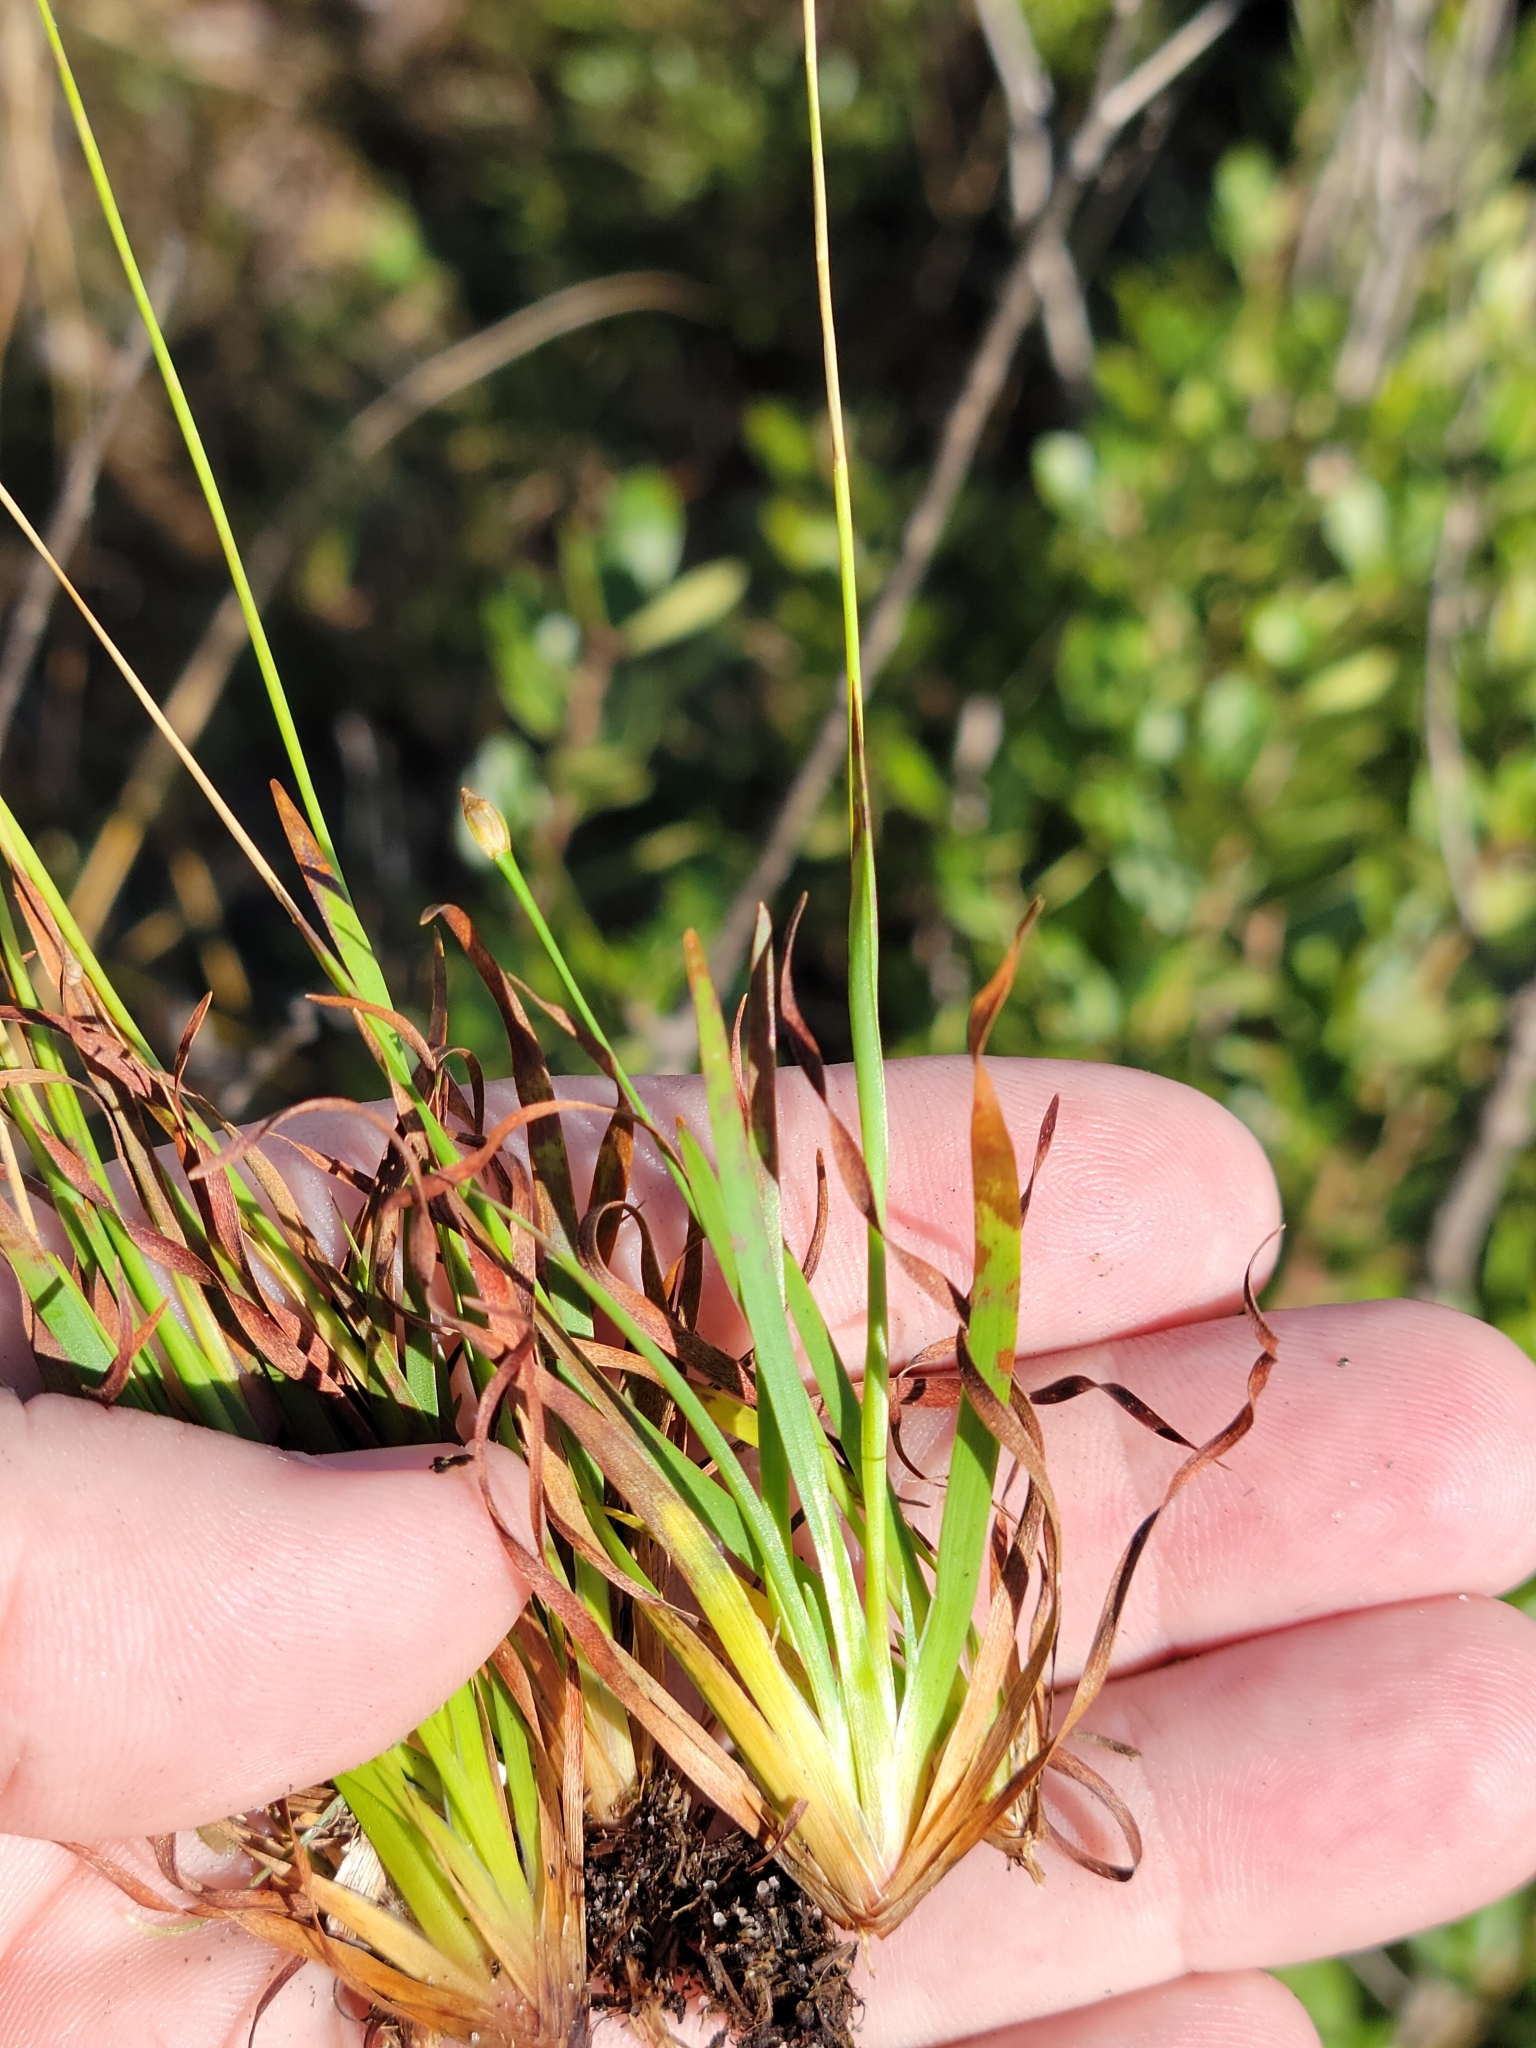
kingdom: Plantae
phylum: Tracheophyta
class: Liliopsida
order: Poales
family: Xyridaceae
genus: Xyris
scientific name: Xyris brevifolia
